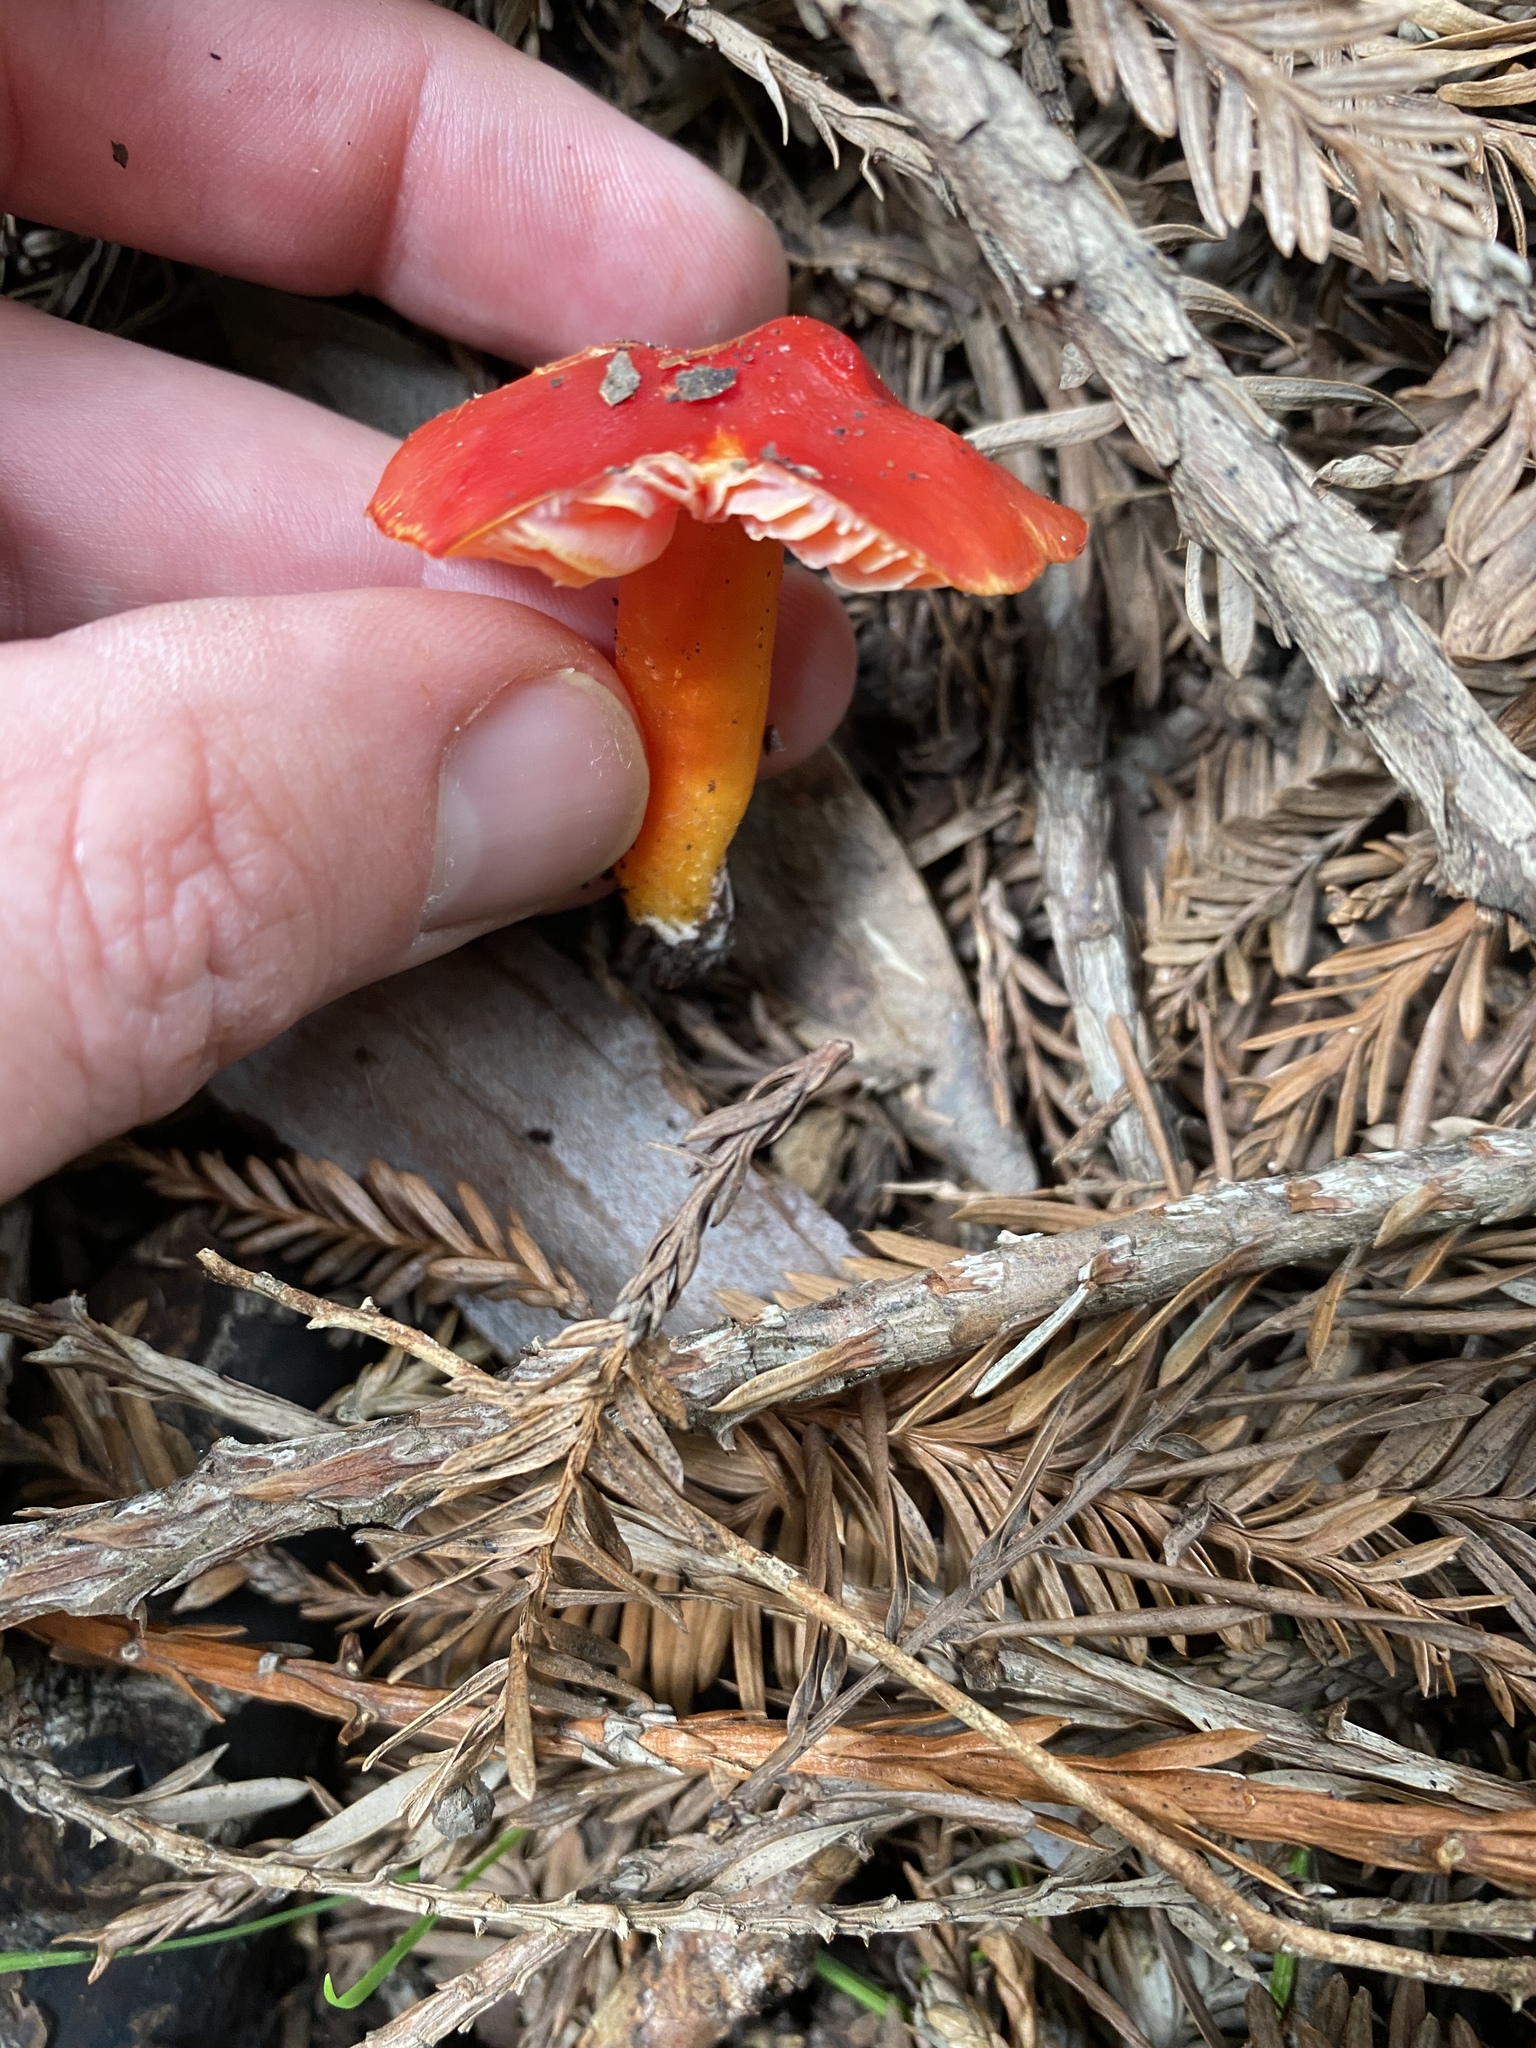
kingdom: Fungi
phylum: Basidiomycota
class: Agaricomycetes
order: Agaricales
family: Hygrophoraceae
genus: Hygrocybe
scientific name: Hygrocybe coccinea
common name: Scarlet hood
